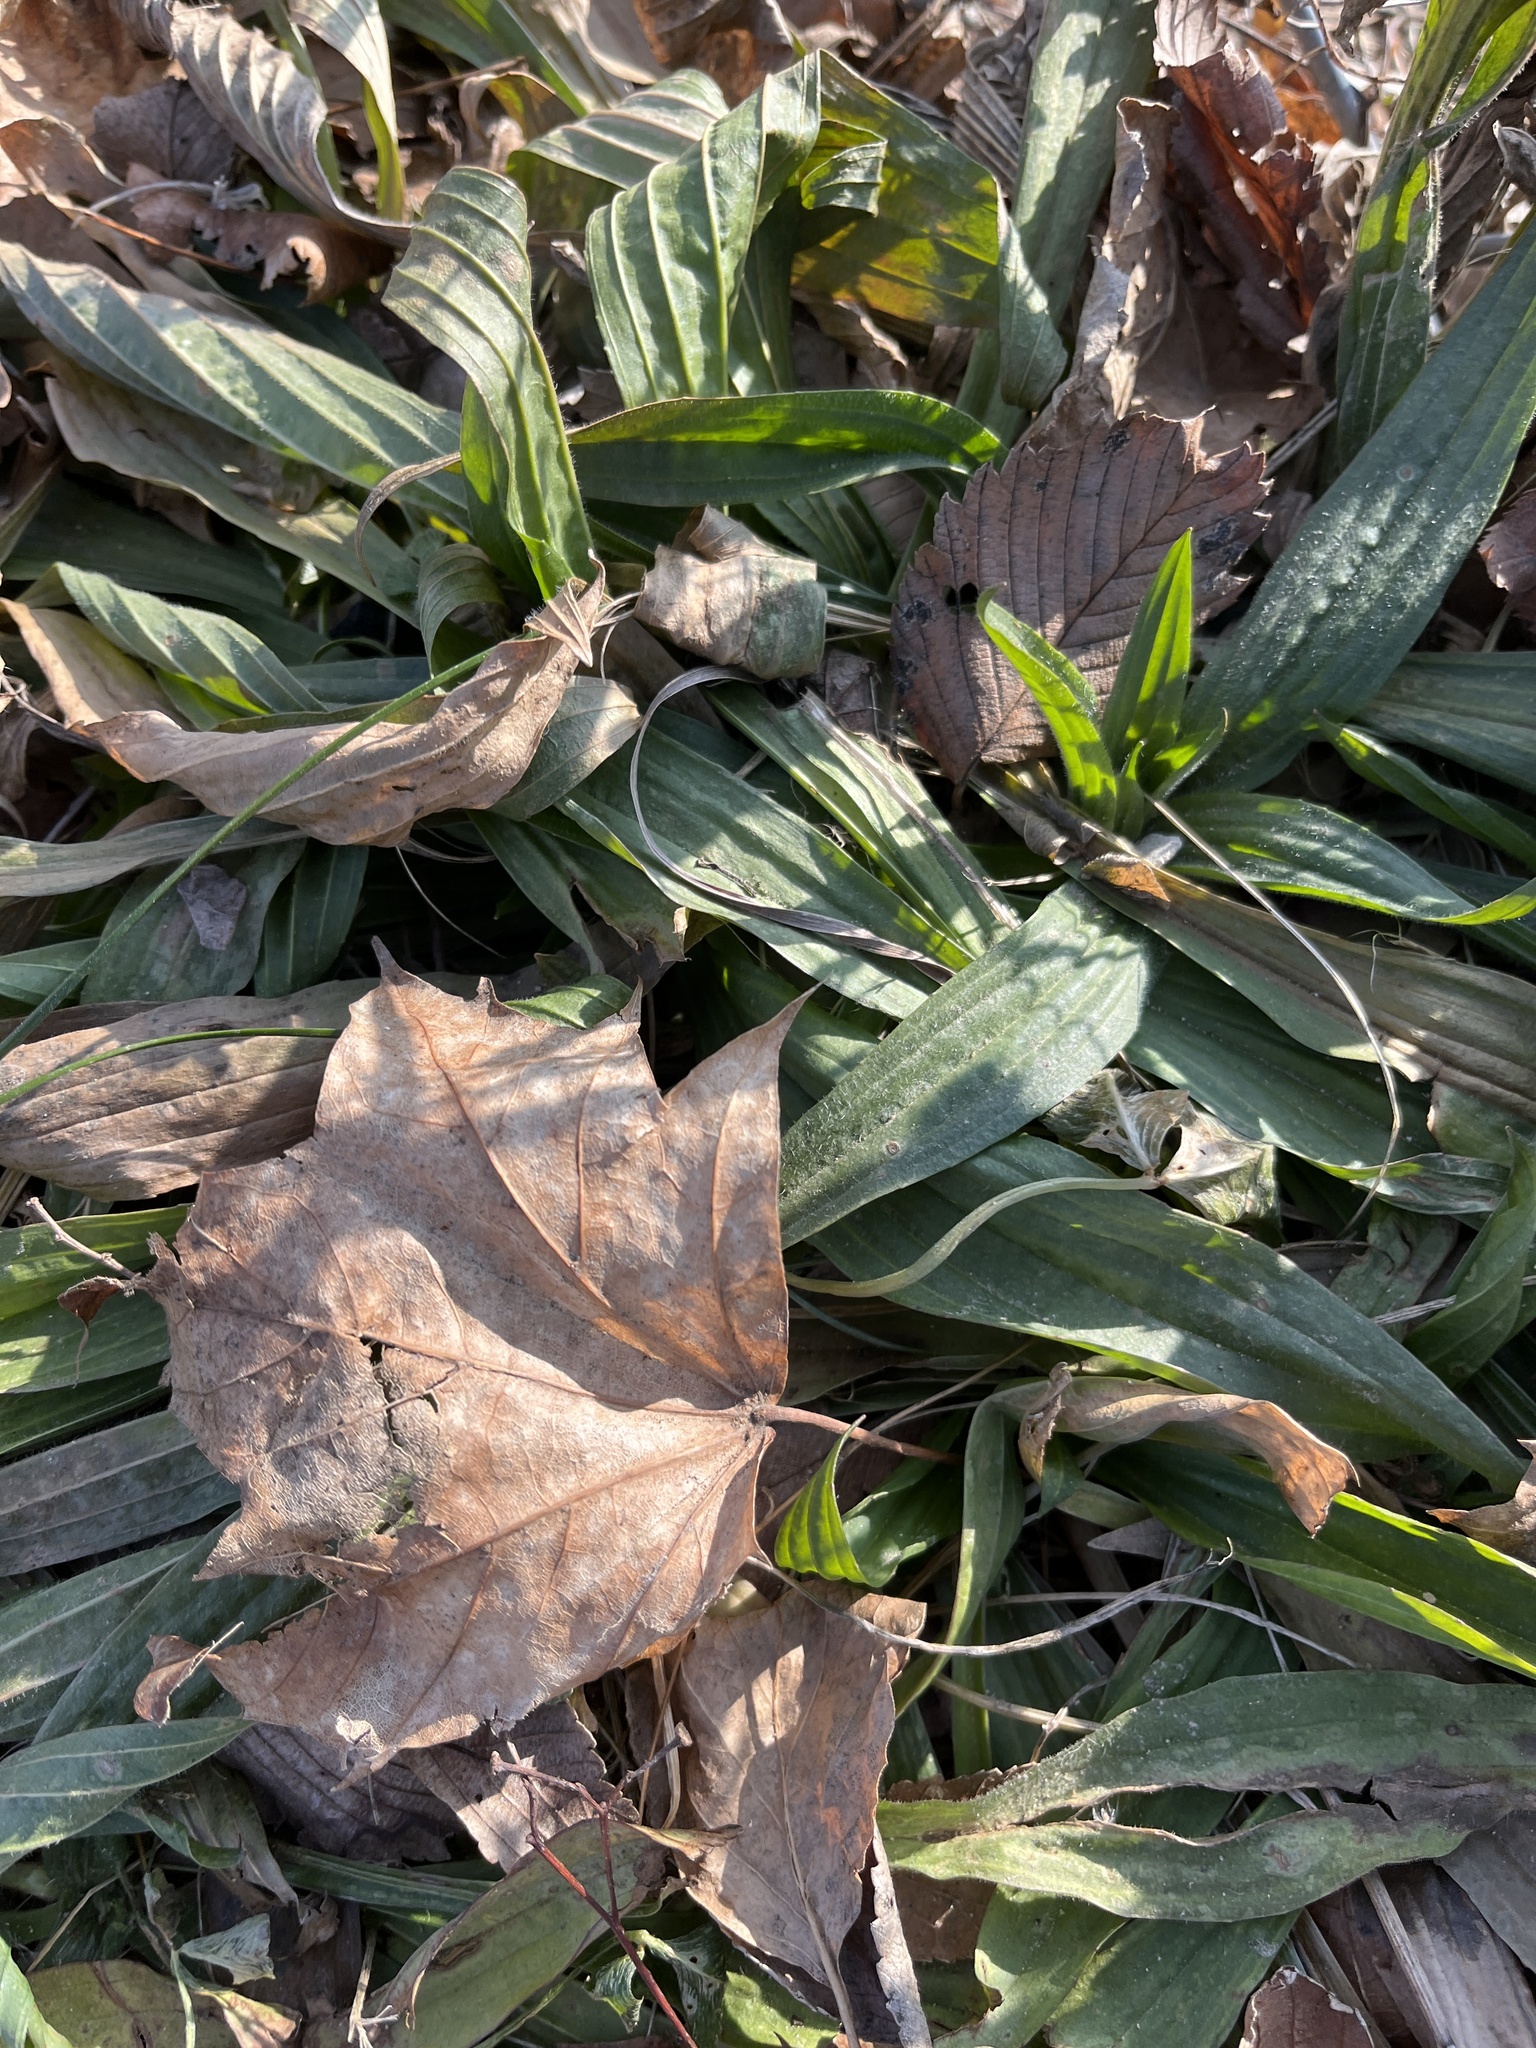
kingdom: Plantae
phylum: Tracheophyta
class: Magnoliopsida
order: Lamiales
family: Plantaginaceae
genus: Plantago
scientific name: Plantago lanceolata
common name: Ribwort plantain
